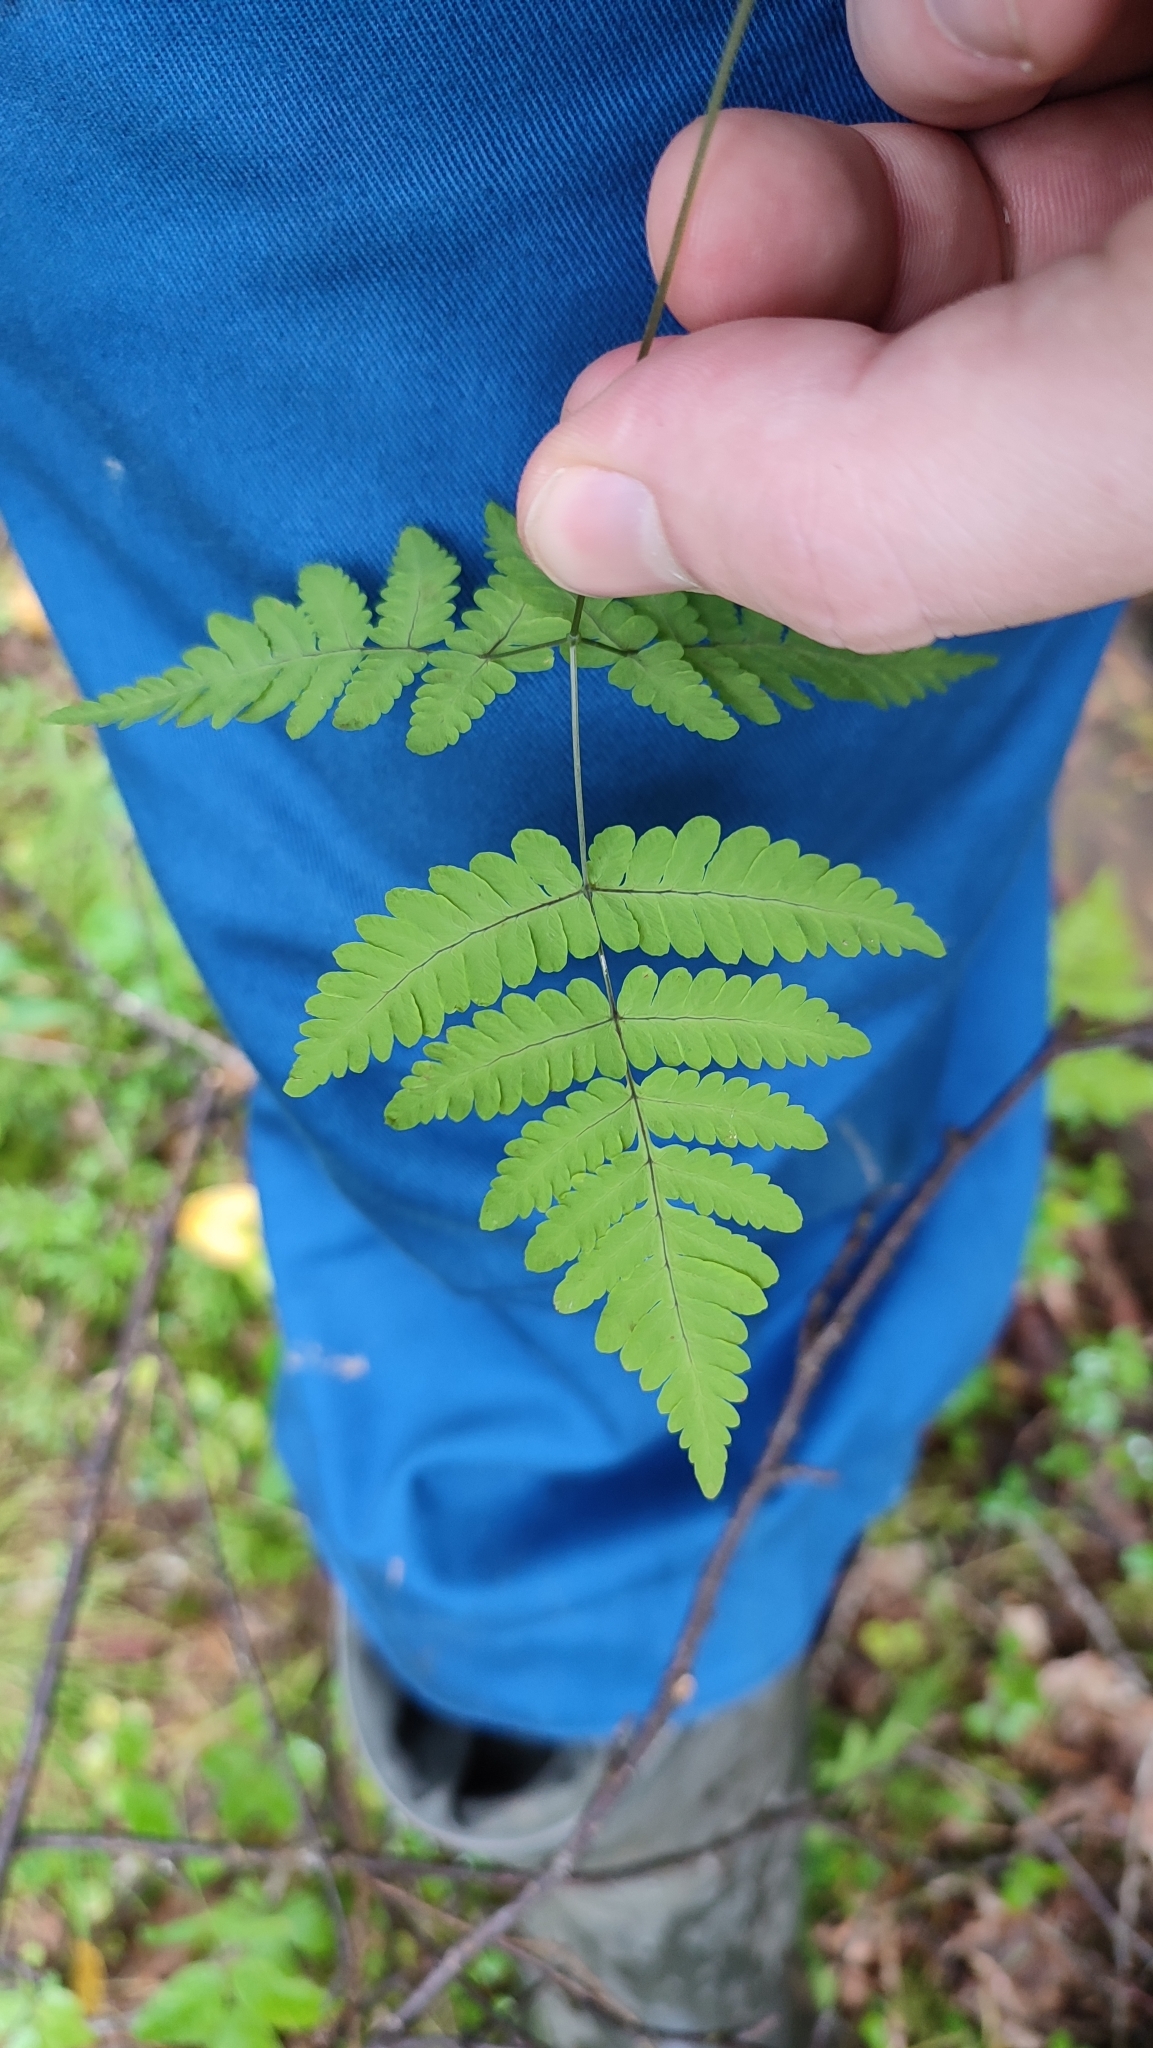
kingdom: Plantae
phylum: Tracheophyta
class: Polypodiopsida
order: Polypodiales
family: Cystopteridaceae
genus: Gymnocarpium
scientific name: Gymnocarpium dryopteris
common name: Oak fern
